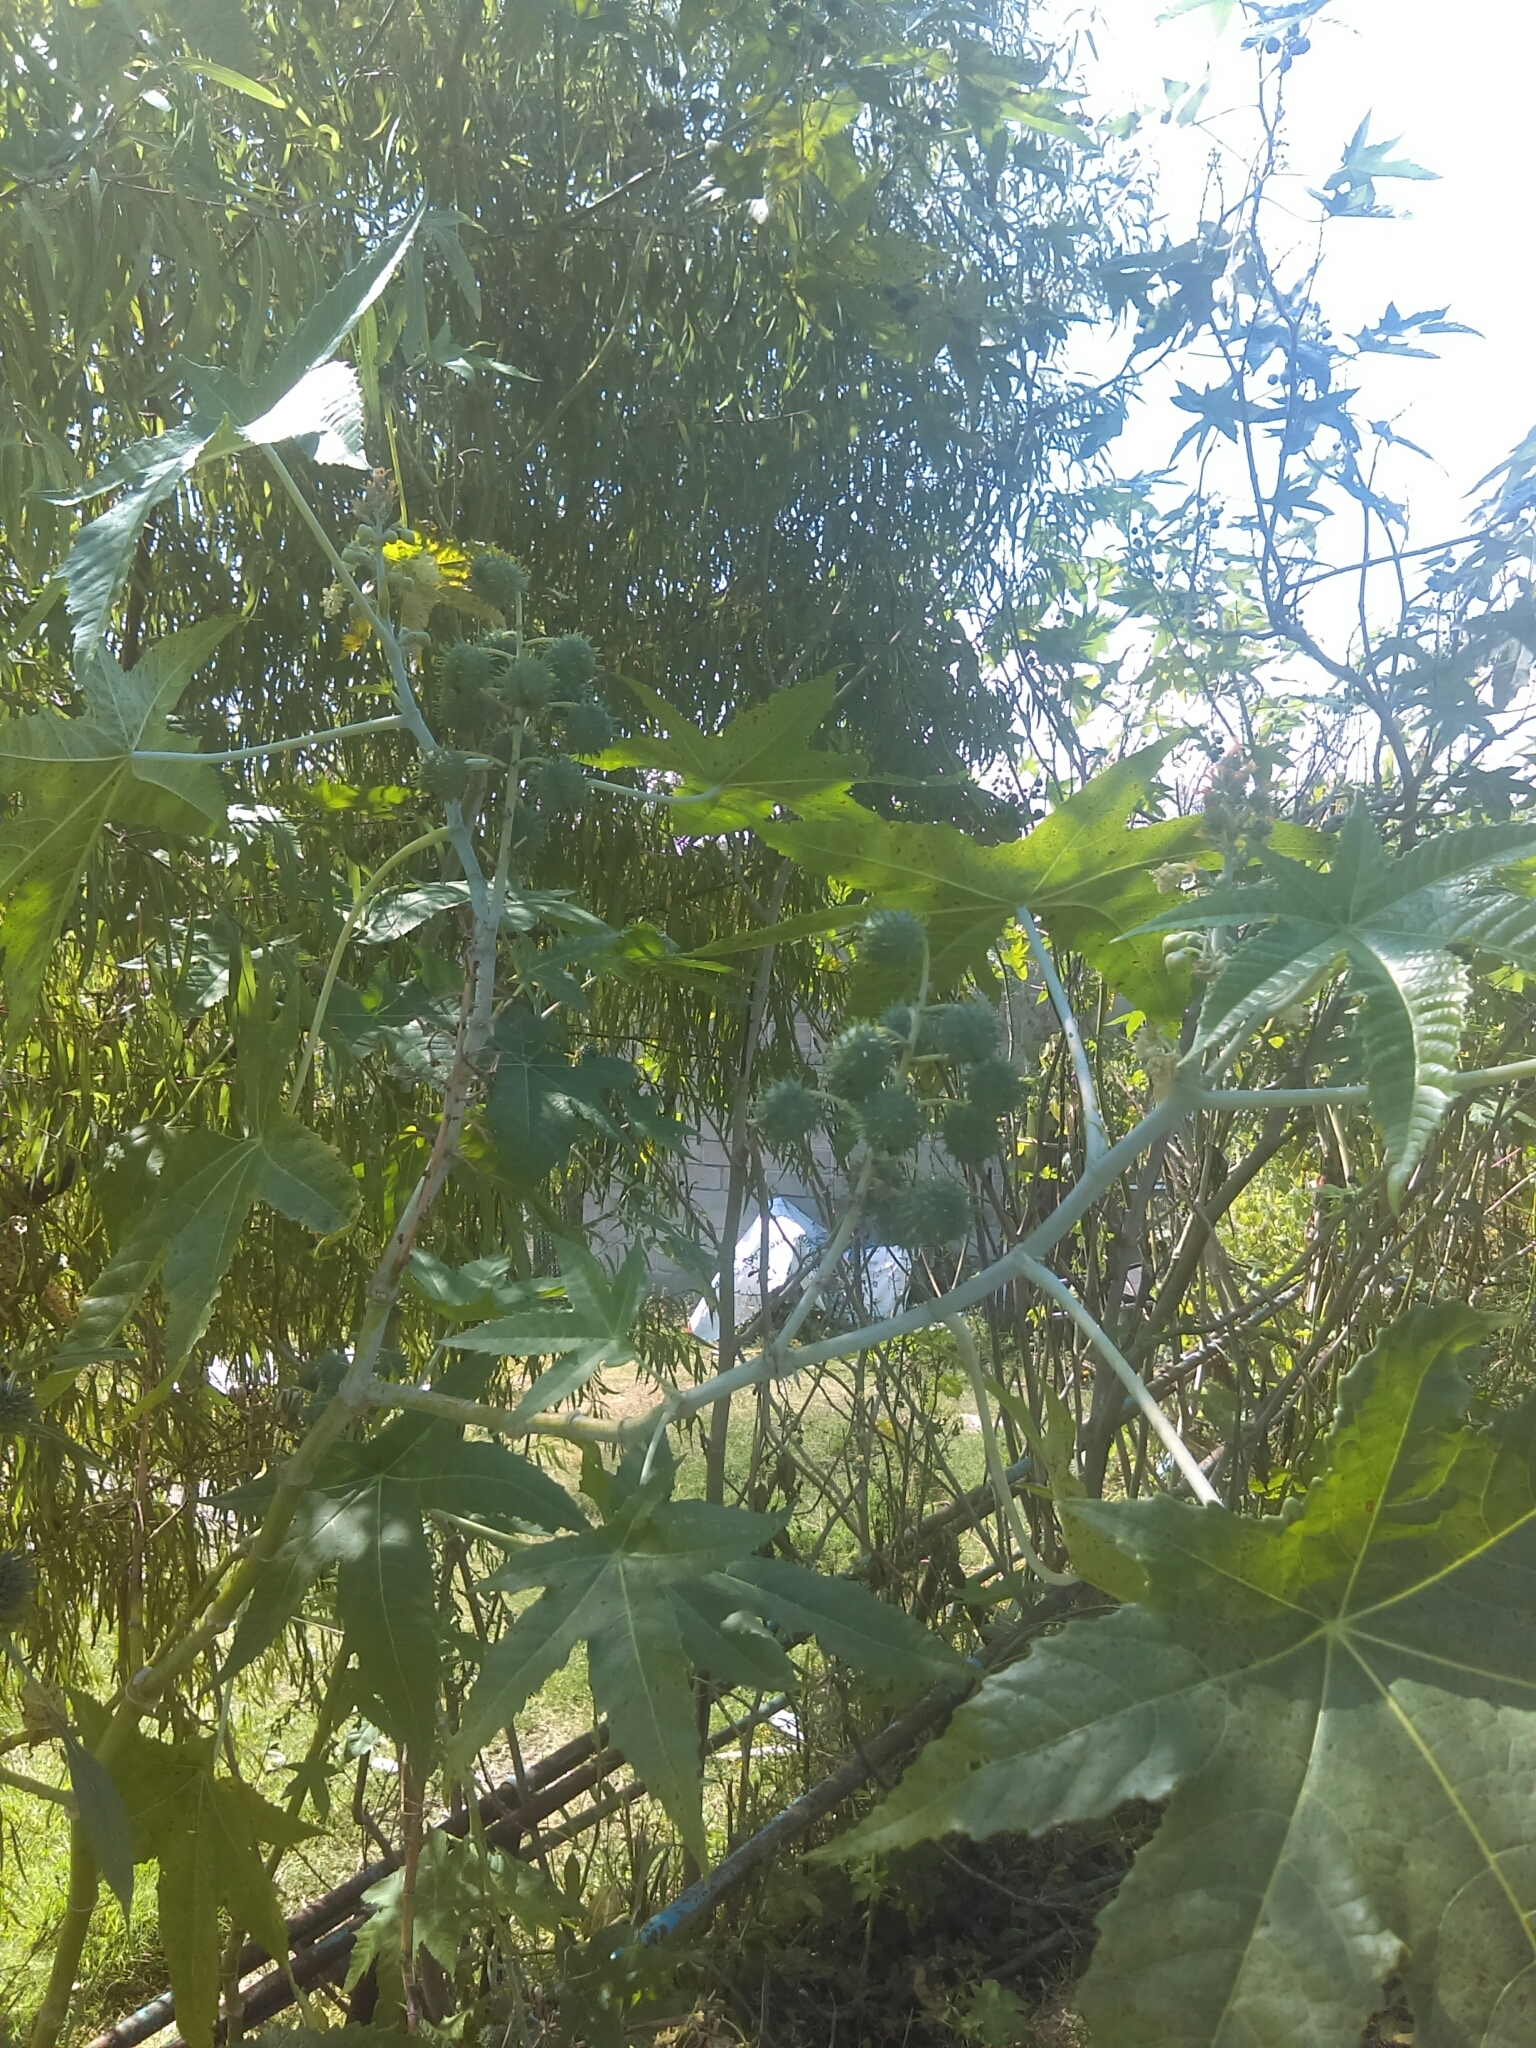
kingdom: Plantae
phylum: Tracheophyta
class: Magnoliopsida
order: Malpighiales
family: Euphorbiaceae
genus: Ricinus
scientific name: Ricinus communis
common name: Castor-oil-plant
